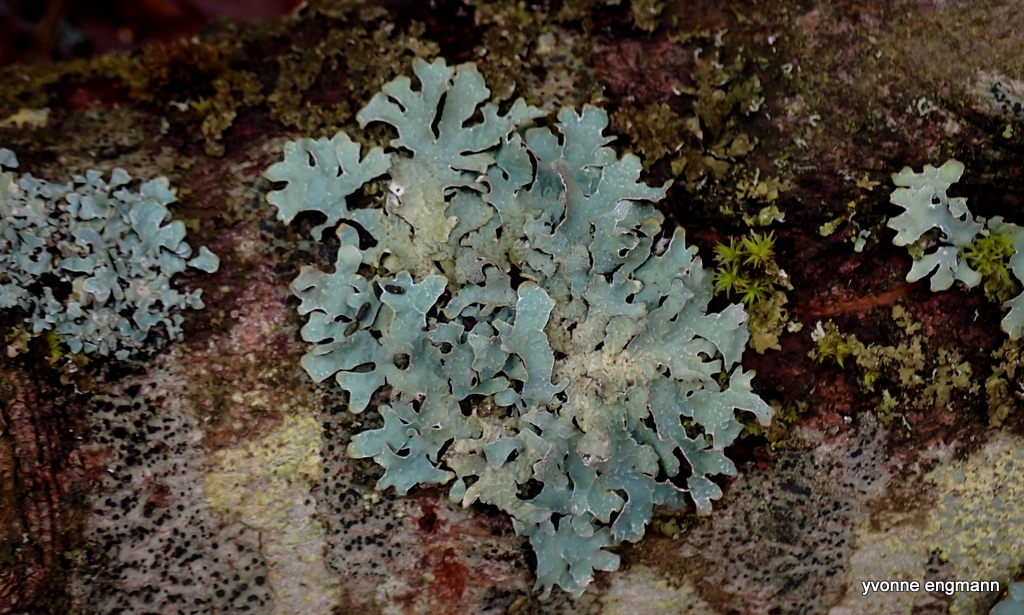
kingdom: Fungi
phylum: Ascomycota
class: Lecanoromycetes
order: Lecanorales
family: Parmeliaceae
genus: Parmelia
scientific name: Parmelia sulcata
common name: Netted shield lichen
